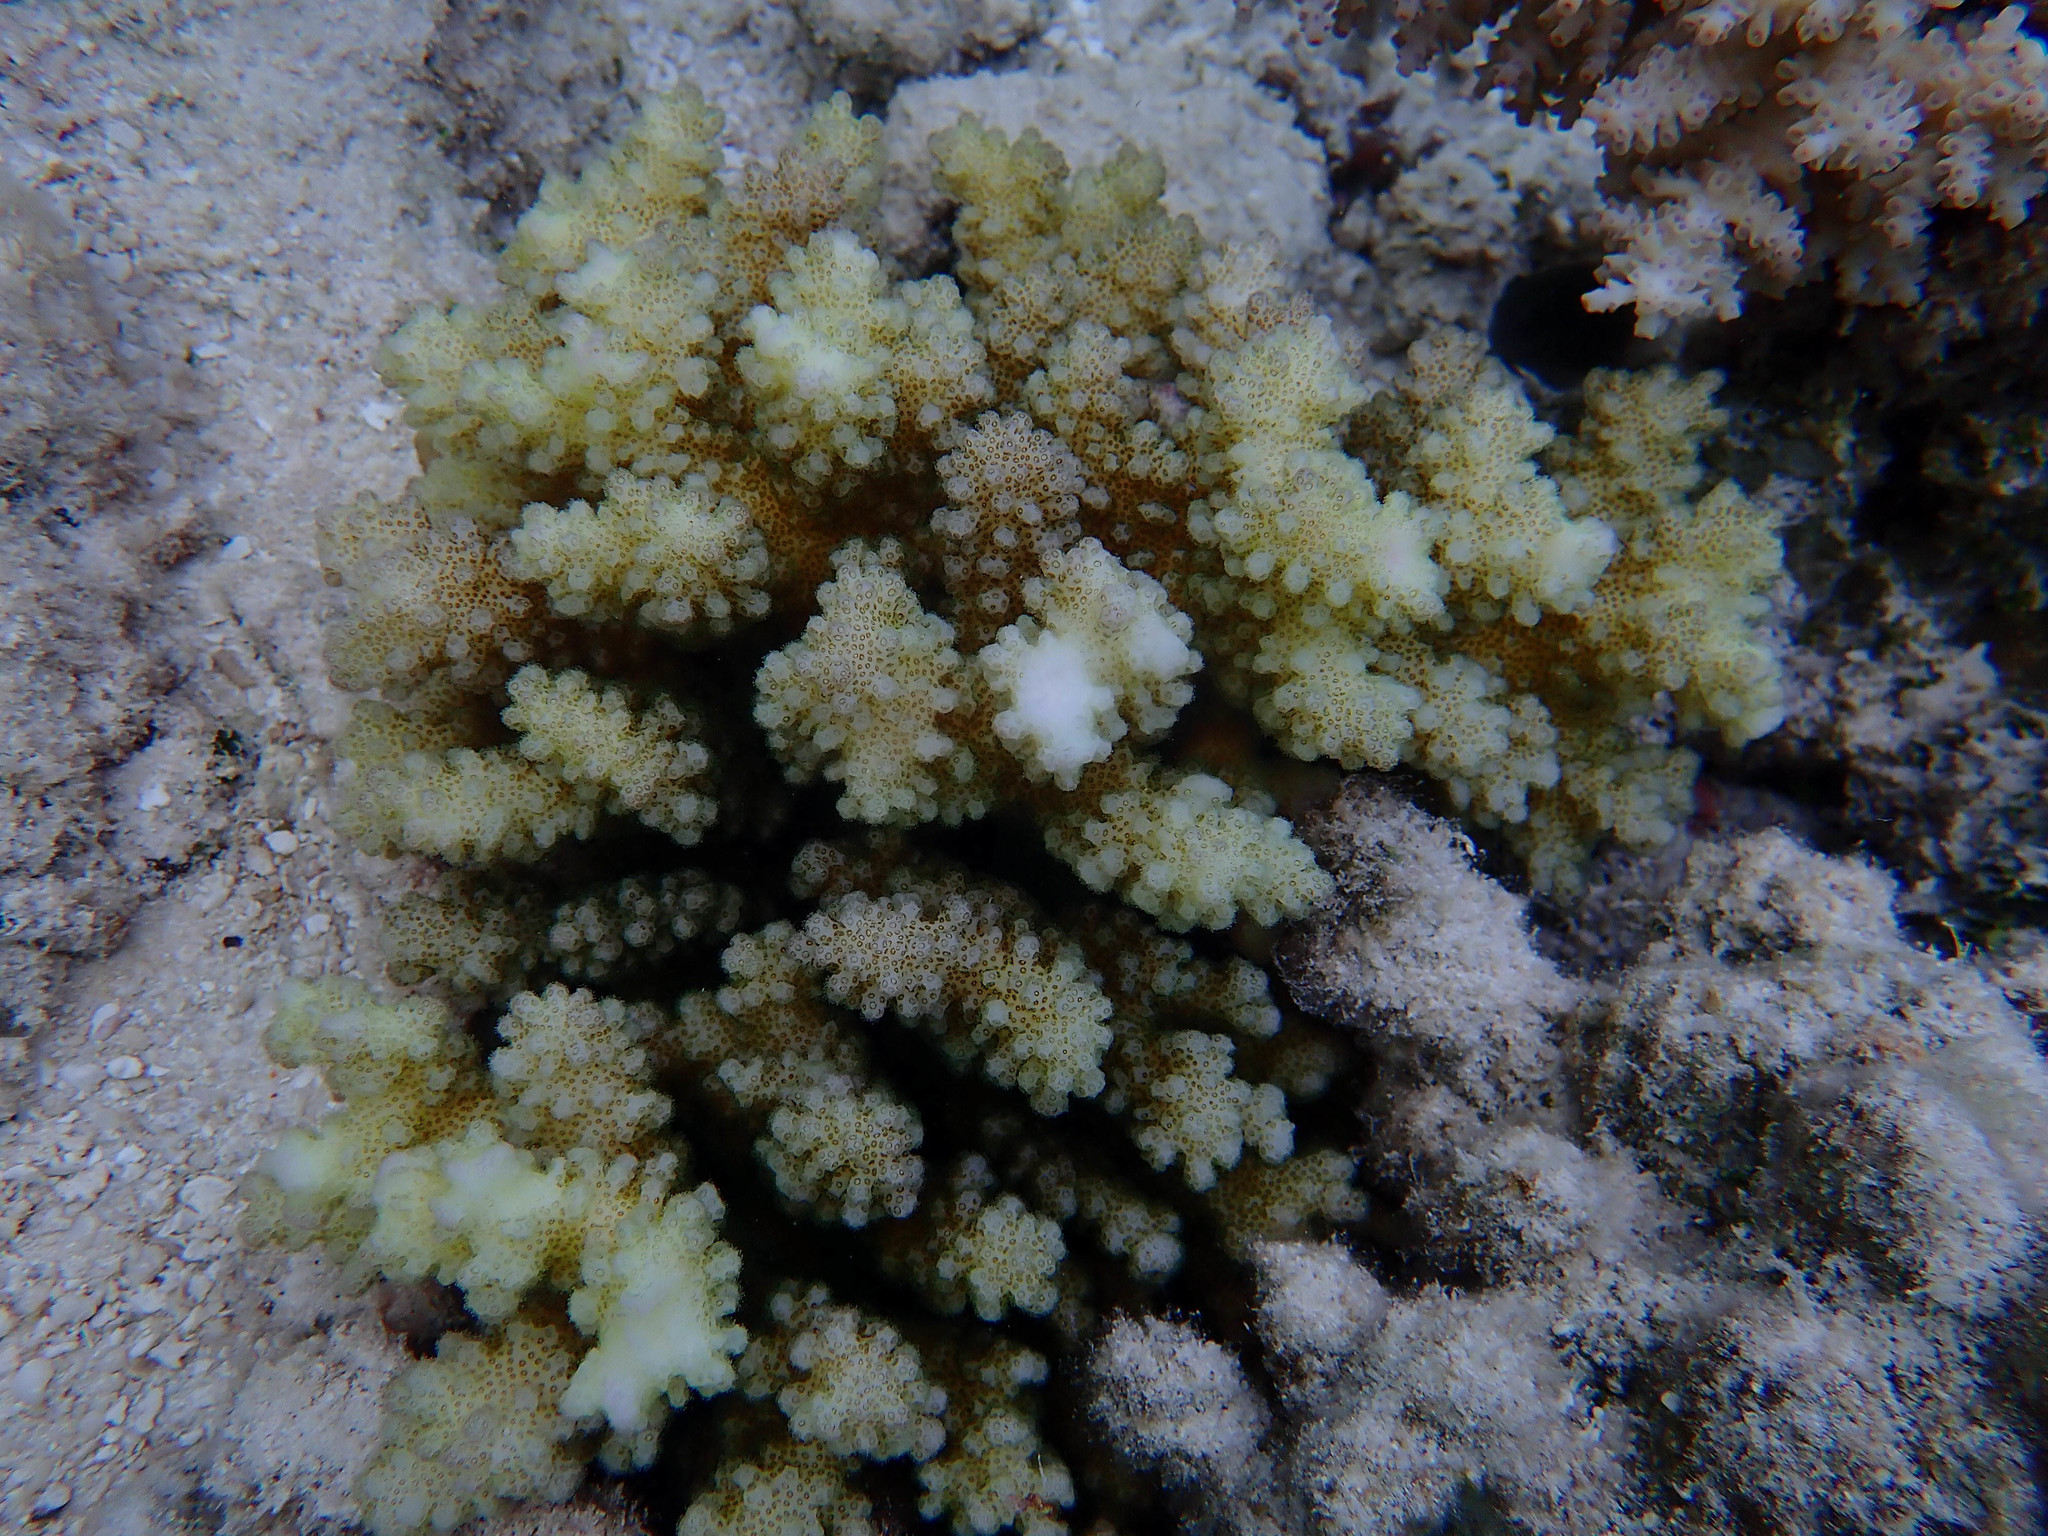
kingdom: Animalia
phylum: Cnidaria
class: Anthozoa
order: Scleractinia
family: Pocilloporidae
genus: Pocillopora
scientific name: Pocillopora verrucosa
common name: Cauliflower coral
